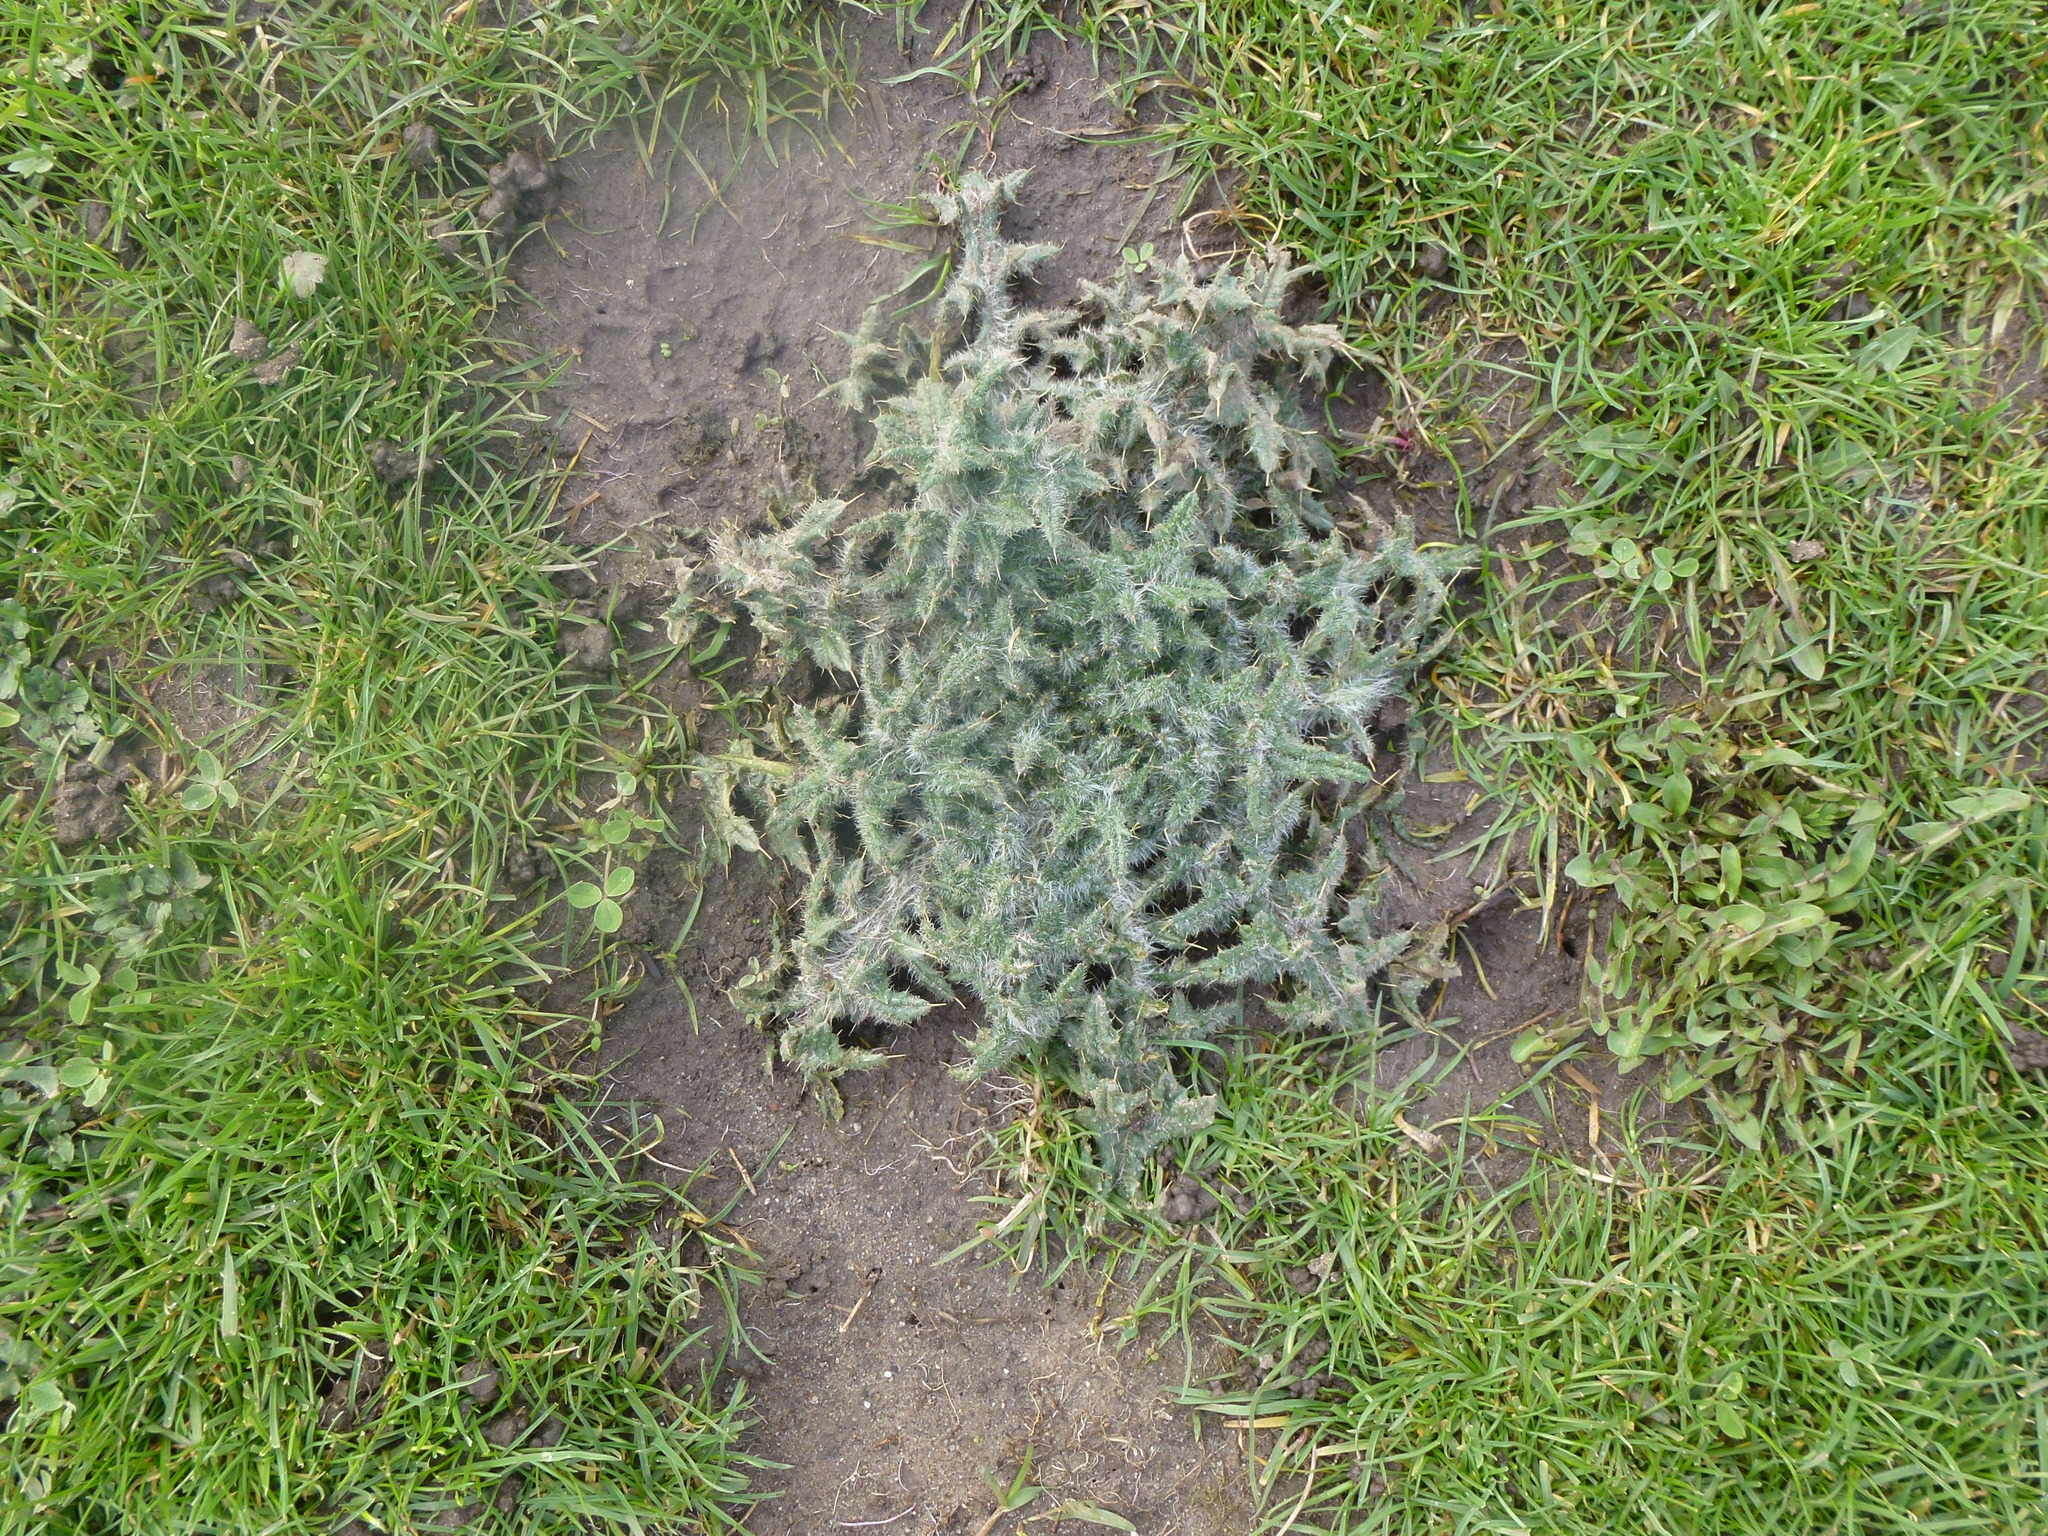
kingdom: Plantae
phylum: Tracheophyta
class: Magnoliopsida
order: Asterales
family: Asteraceae
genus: Cirsium
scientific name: Cirsium vulgare
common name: Bull thistle
